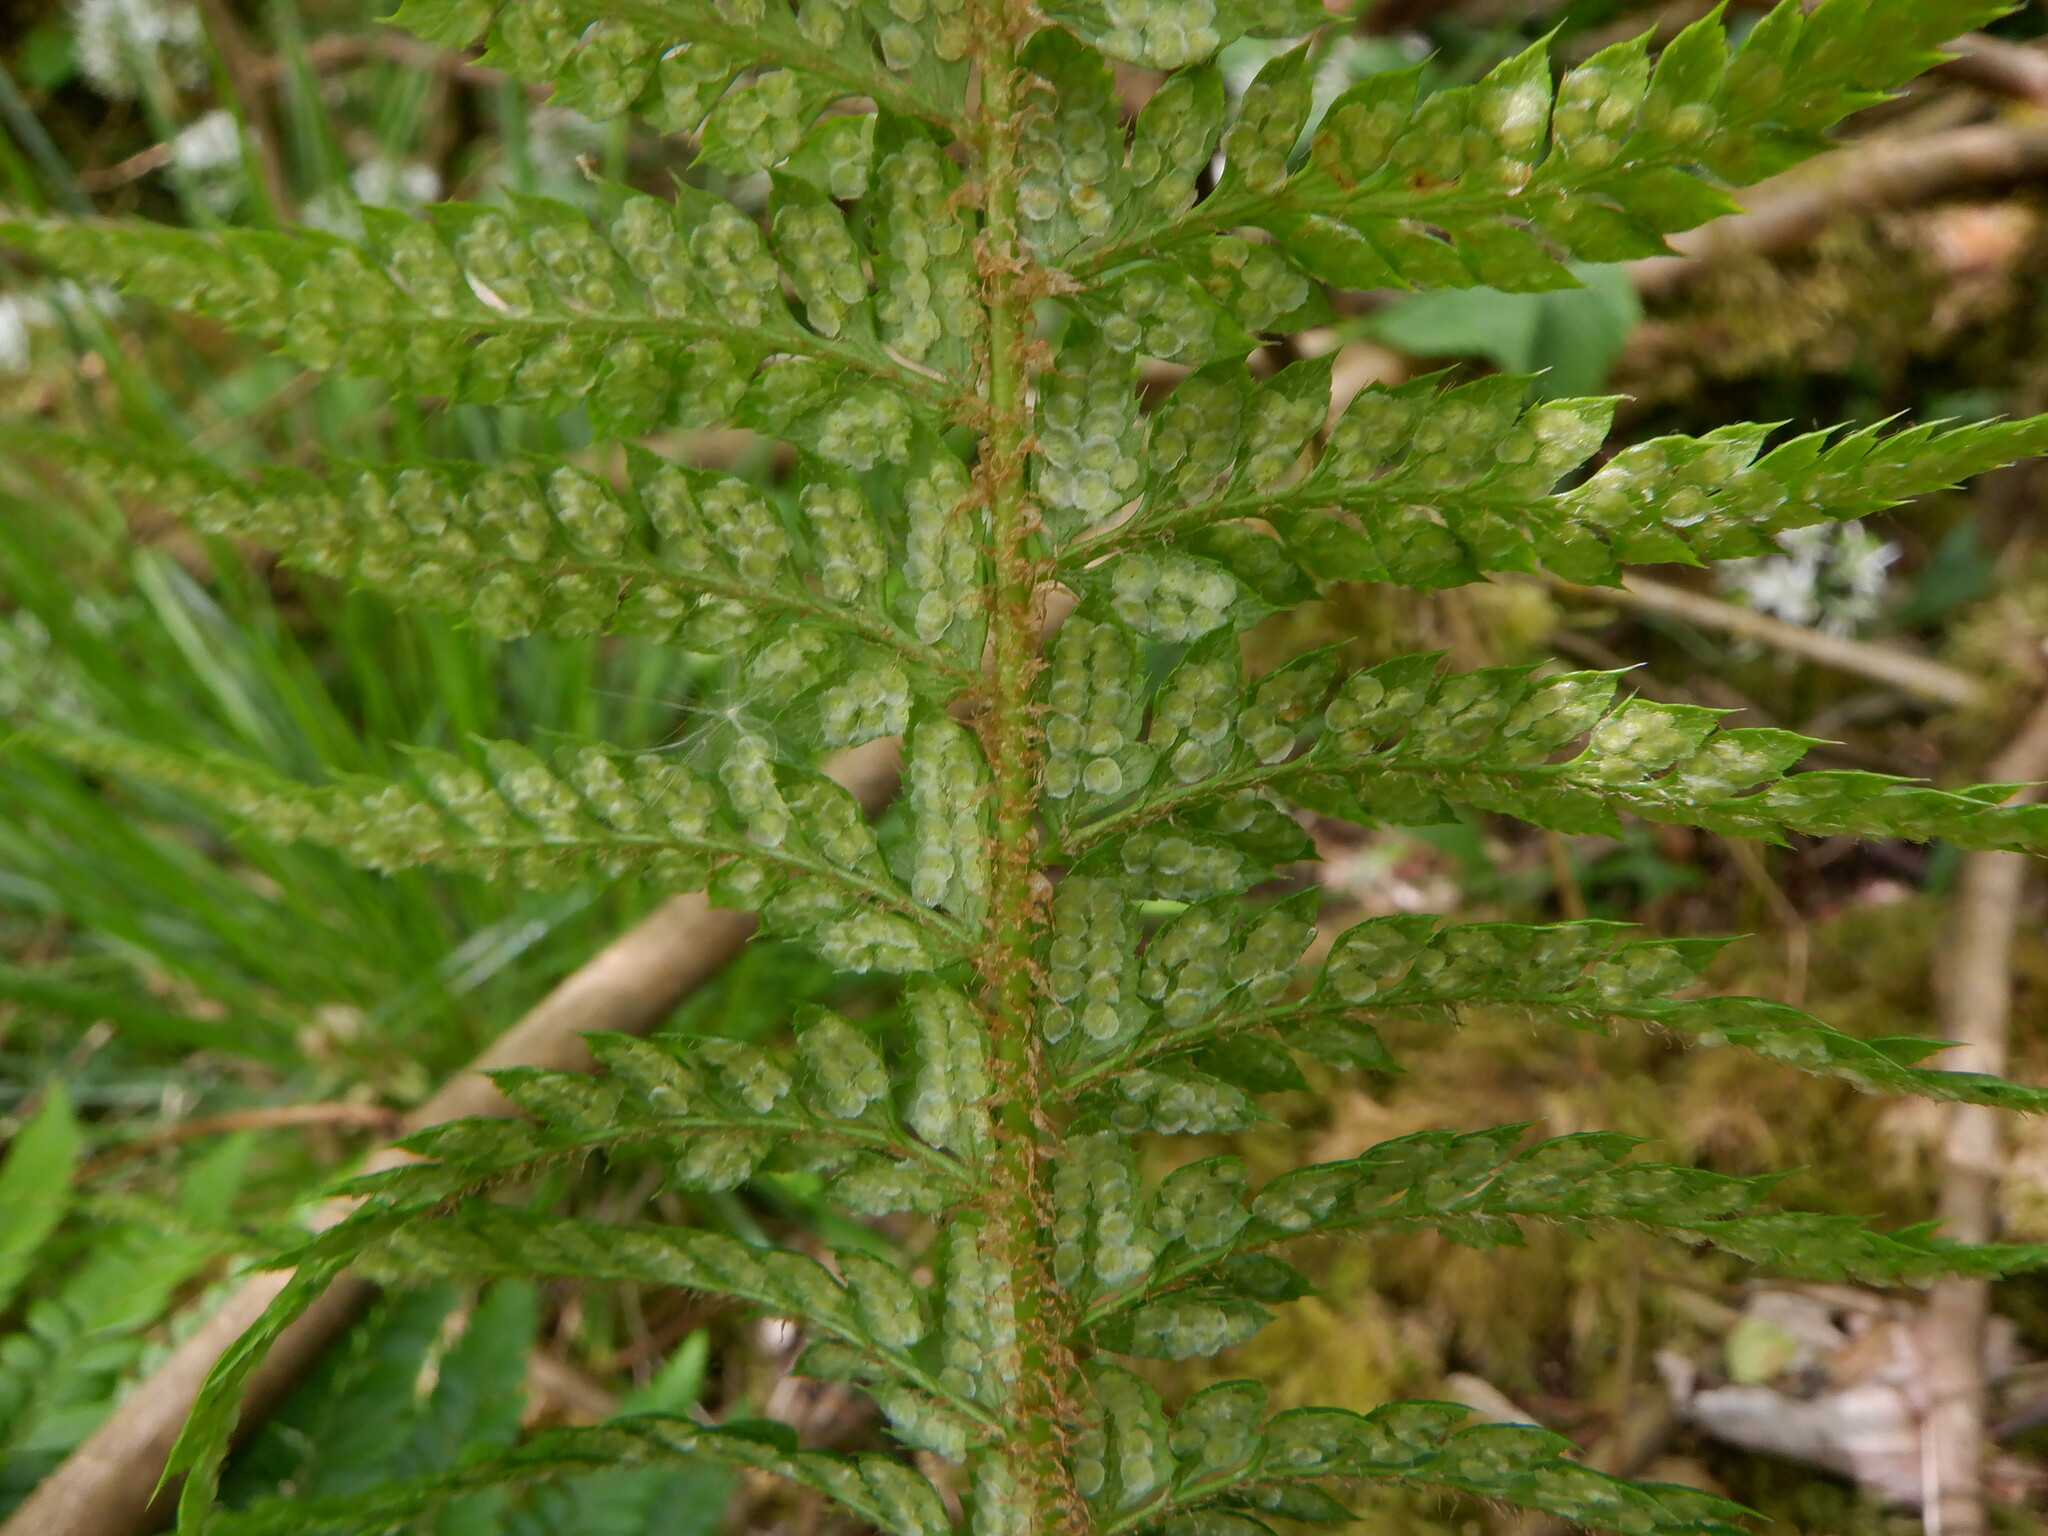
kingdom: Plantae
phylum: Tracheophyta
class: Polypodiopsida
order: Polypodiales
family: Dryopteridaceae
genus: Polystichum
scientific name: Polystichum aculeatum
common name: Hard shield-fern
